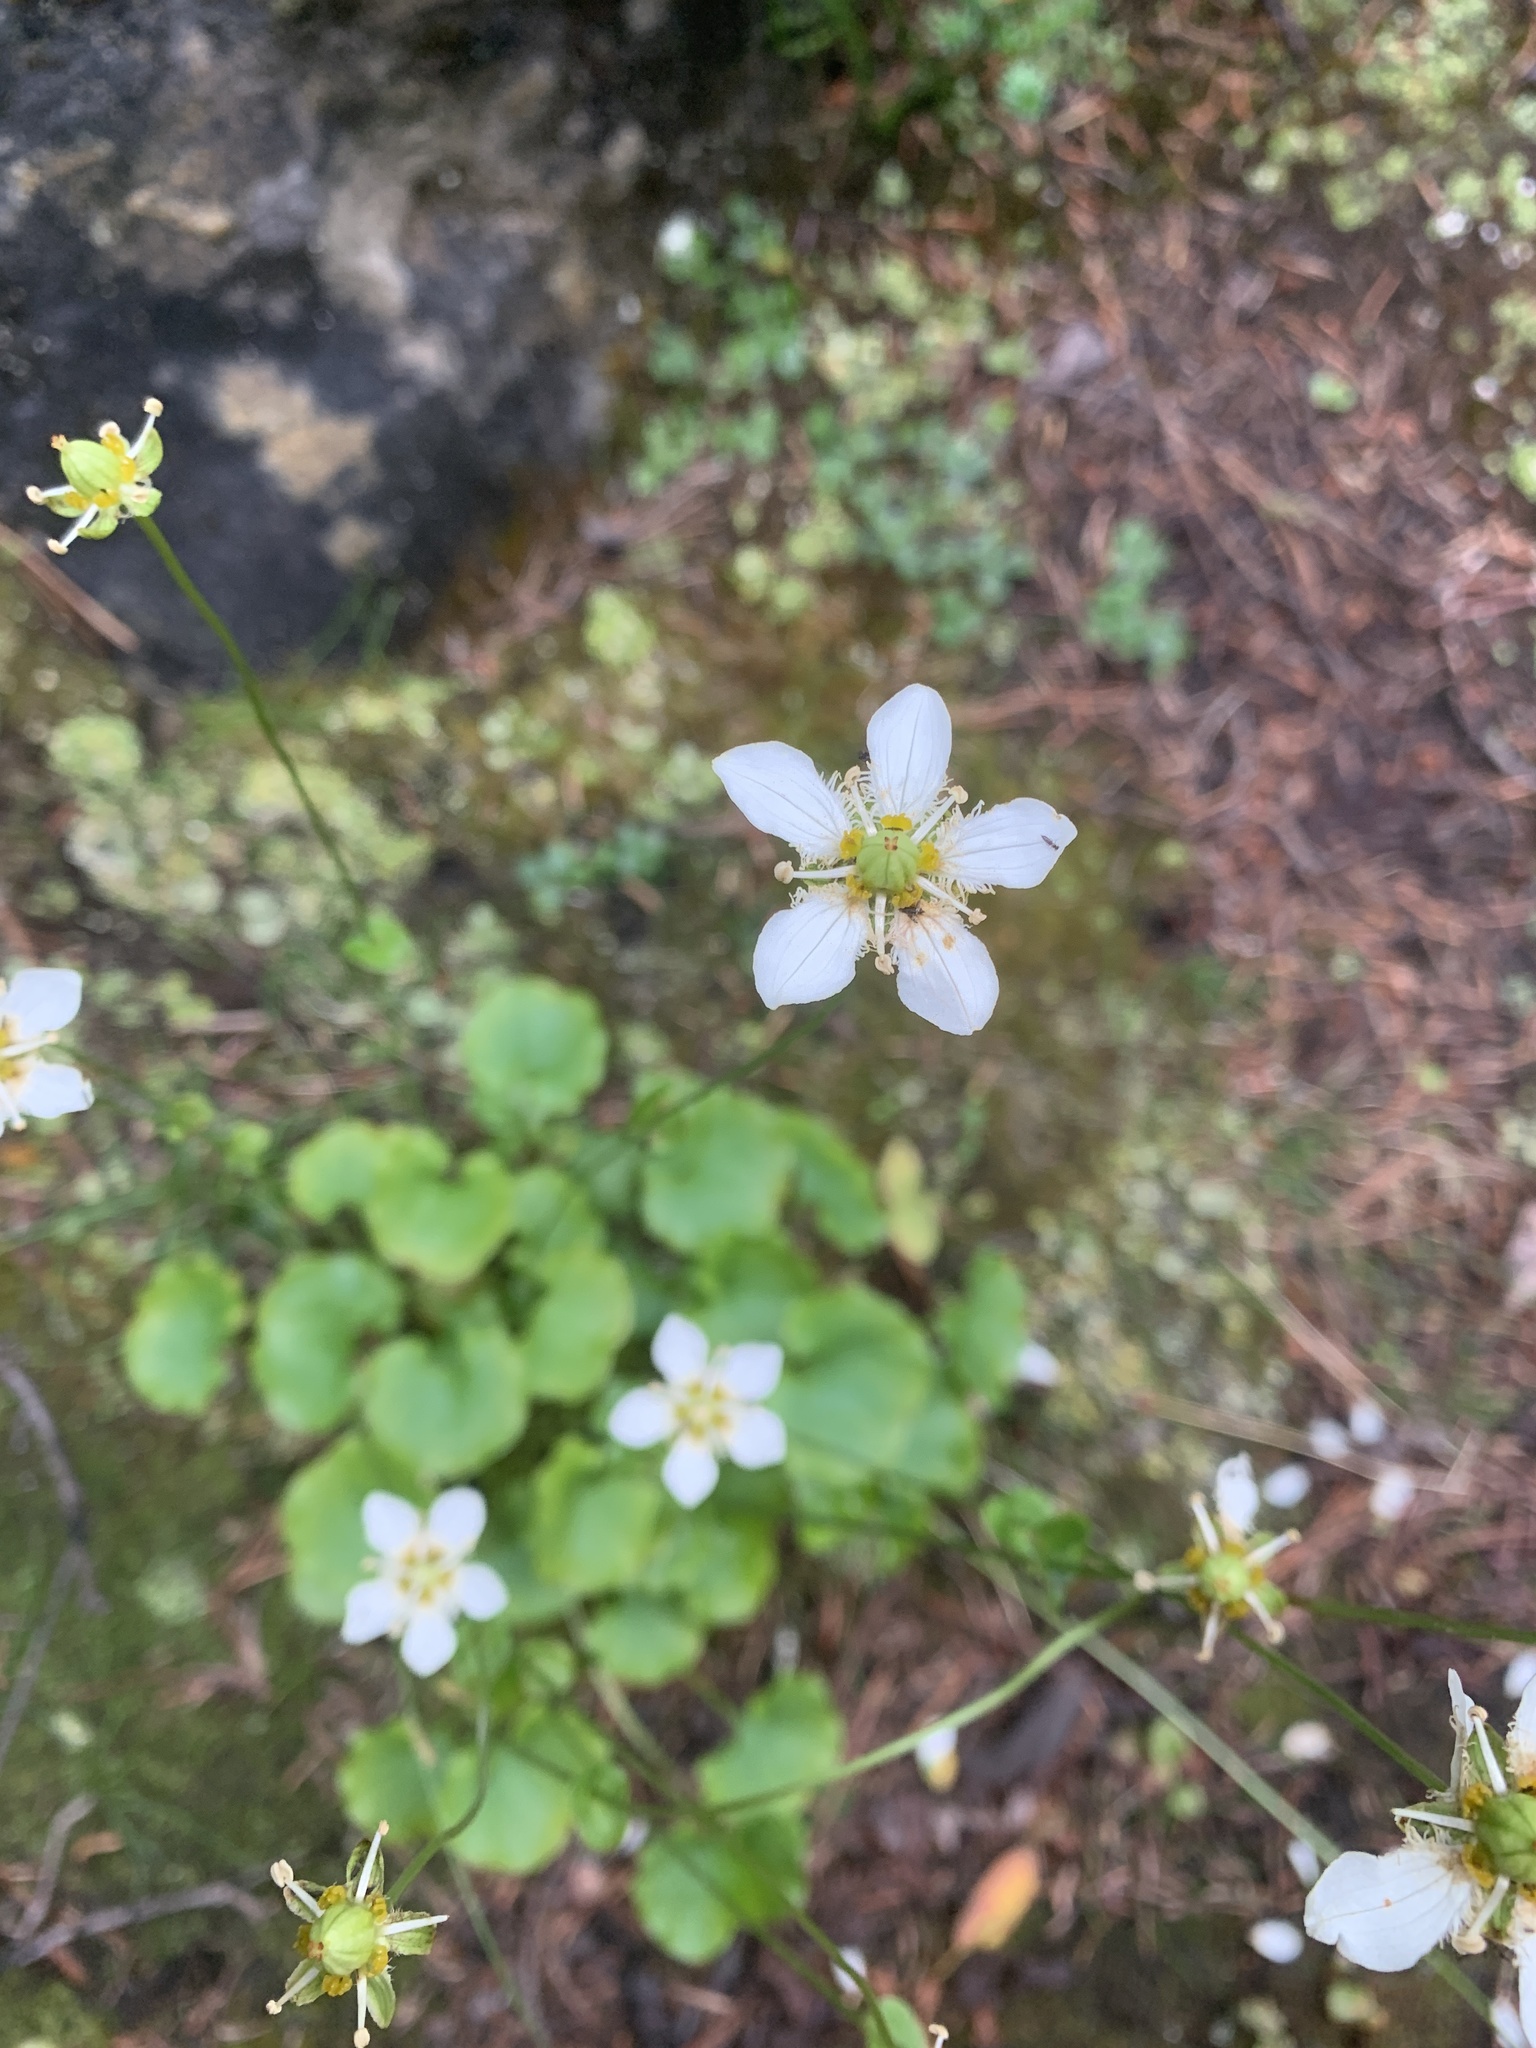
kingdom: Plantae
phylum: Tracheophyta
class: Magnoliopsida
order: Celastrales
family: Parnassiaceae
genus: Parnassia
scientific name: Parnassia fimbriata
